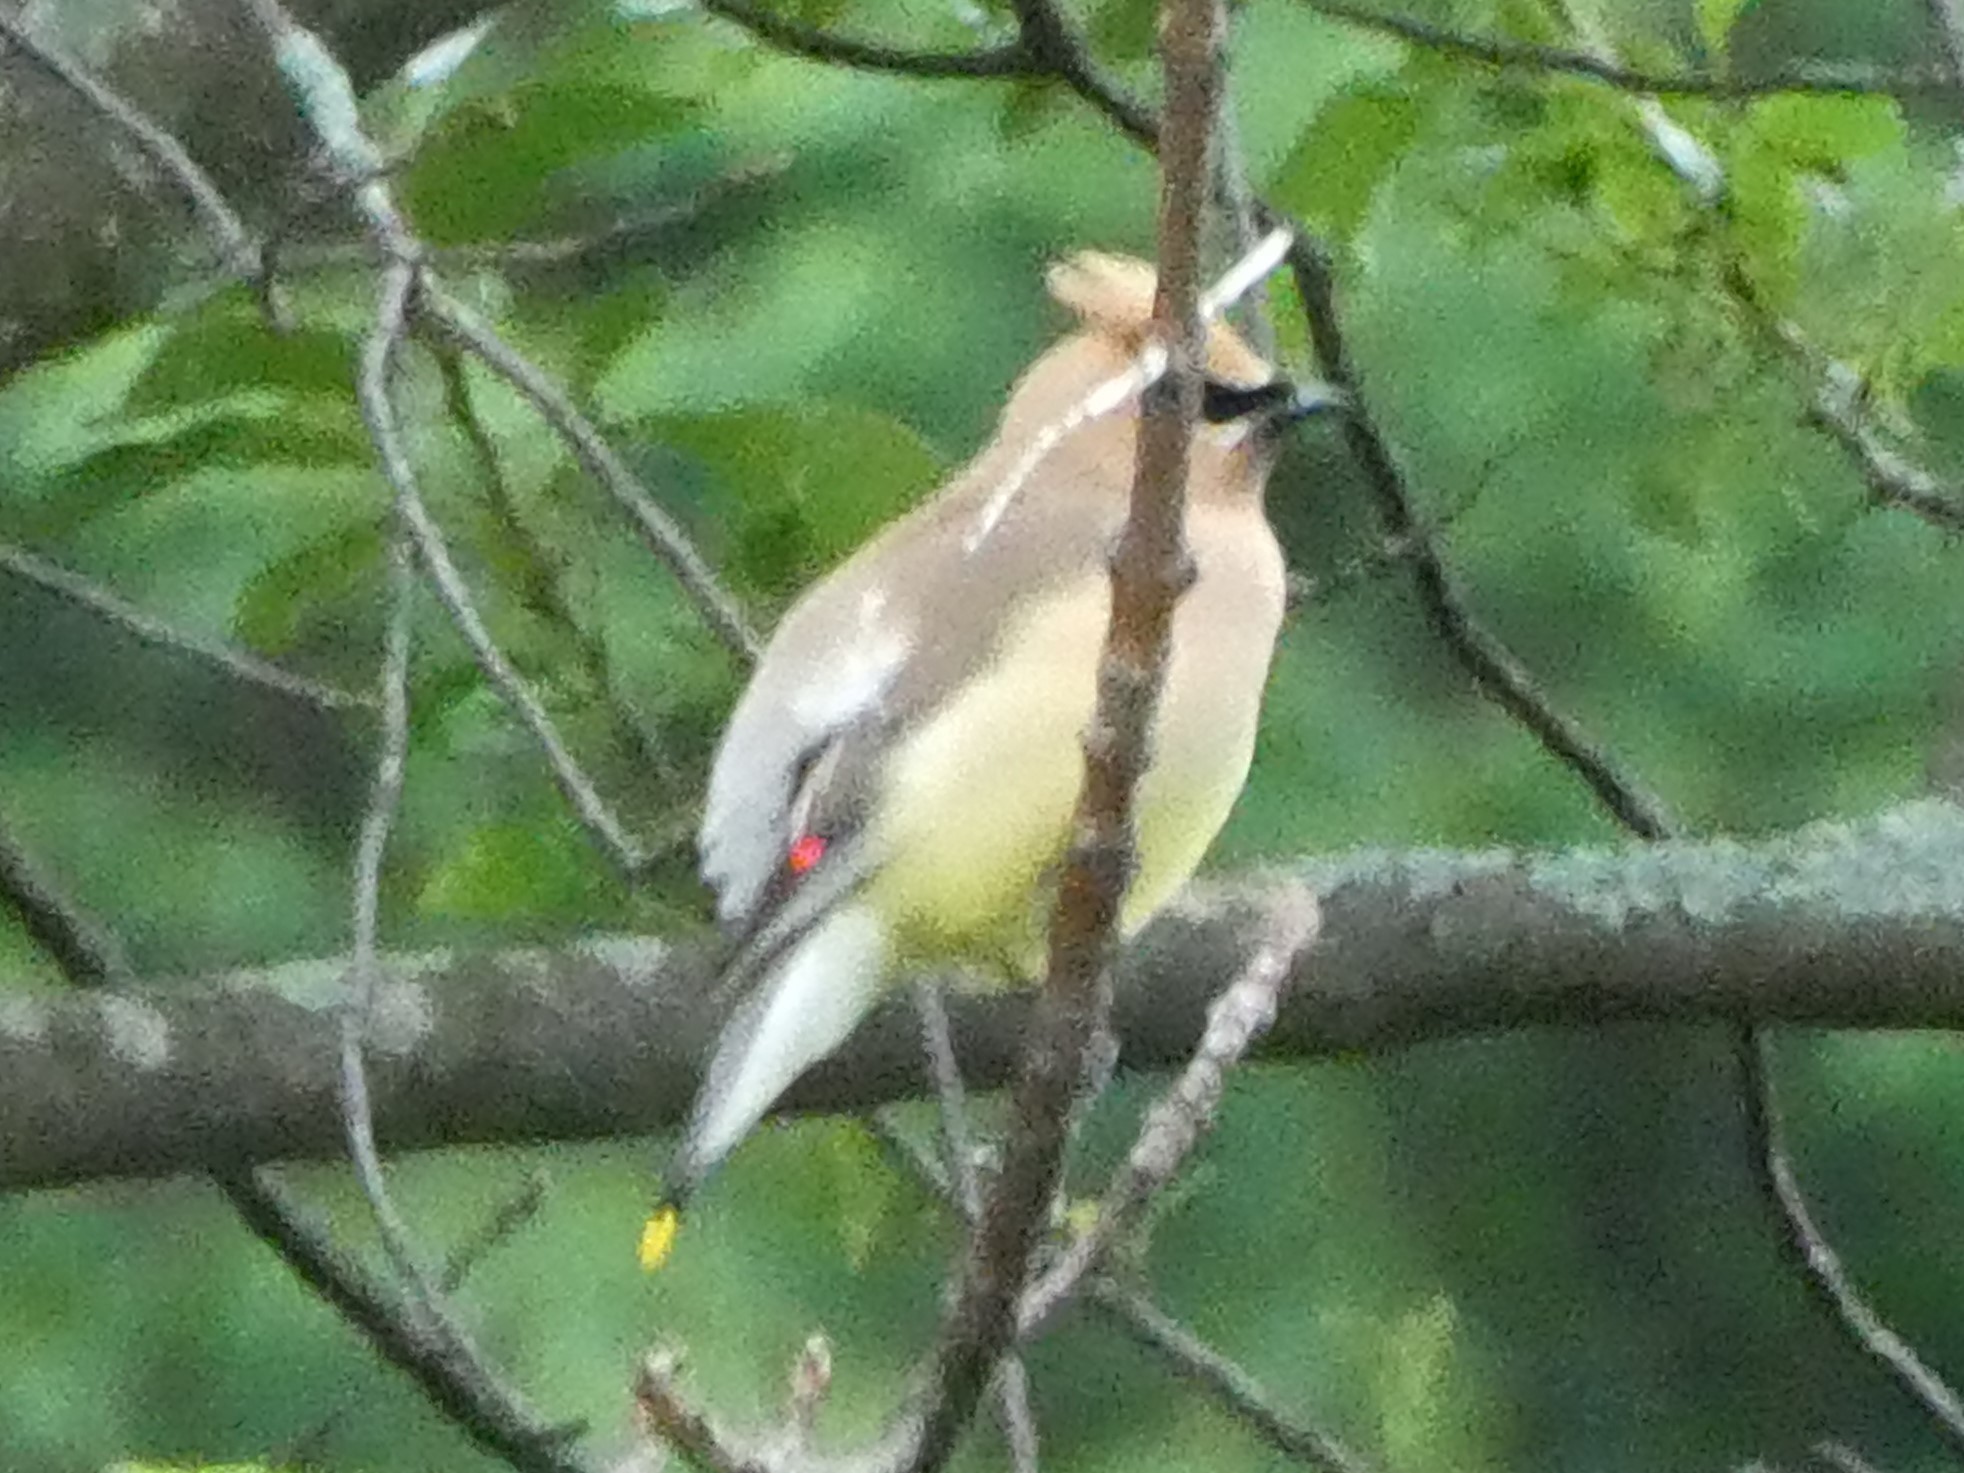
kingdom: Animalia
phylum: Chordata
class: Aves
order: Passeriformes
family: Bombycillidae
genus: Bombycilla
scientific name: Bombycilla cedrorum
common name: Cedar waxwing
